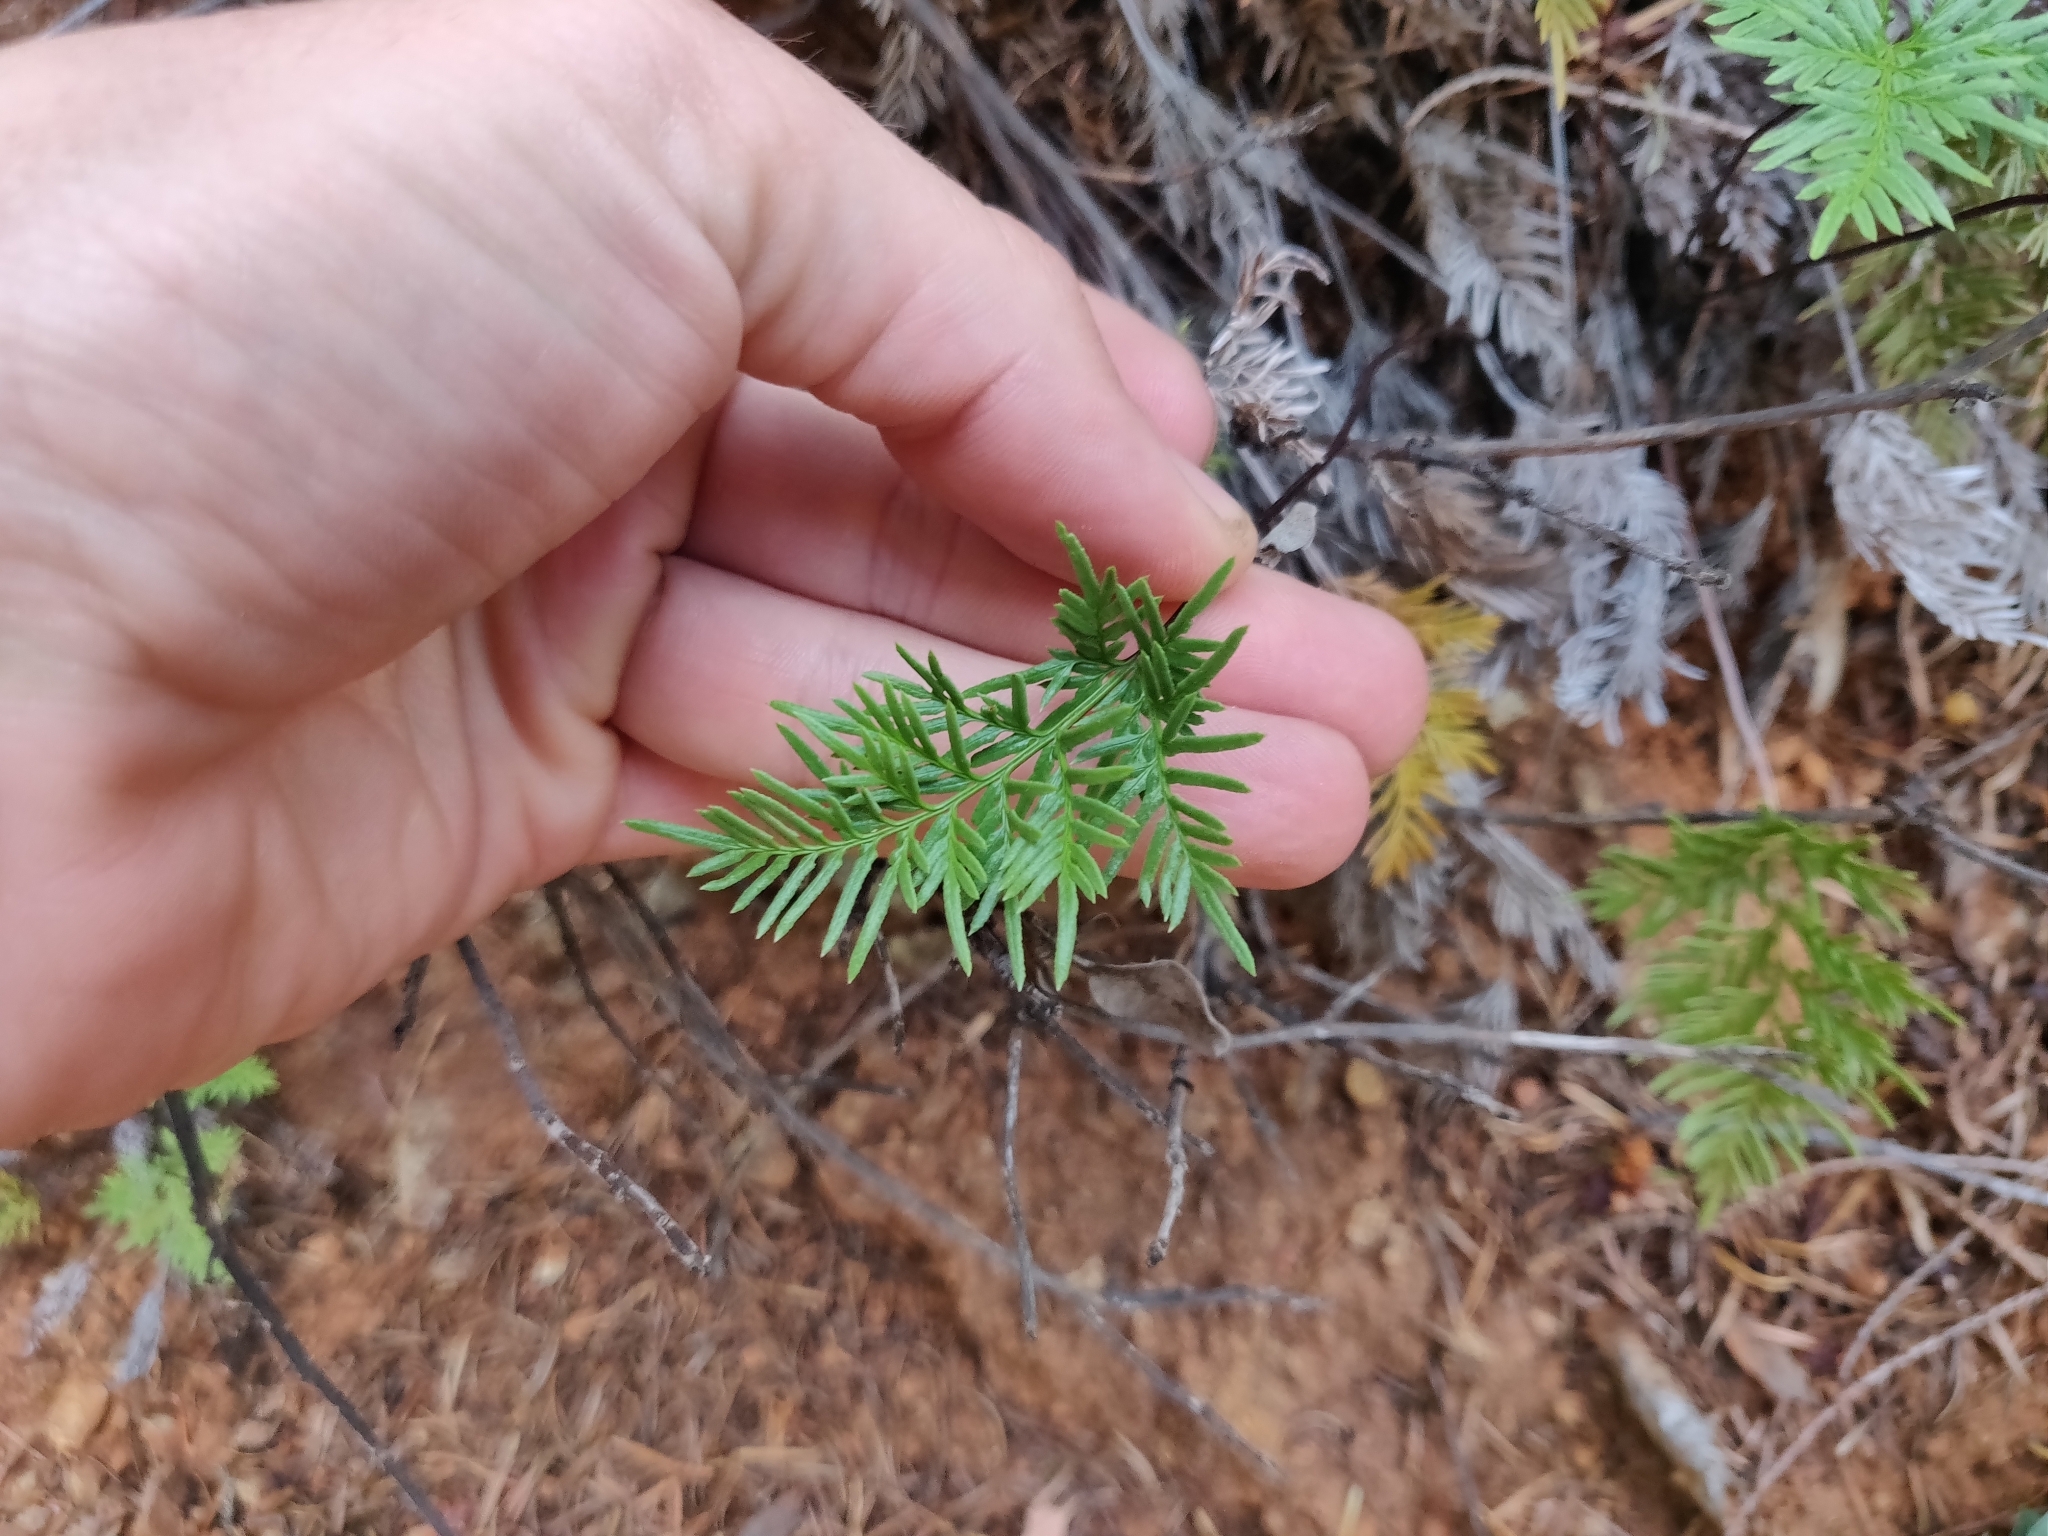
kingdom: Plantae
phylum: Tracheophyta
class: Polypodiopsida
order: Polypodiales
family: Pteridaceae
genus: Aspidotis
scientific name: Aspidotis densa
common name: Indian's dream
